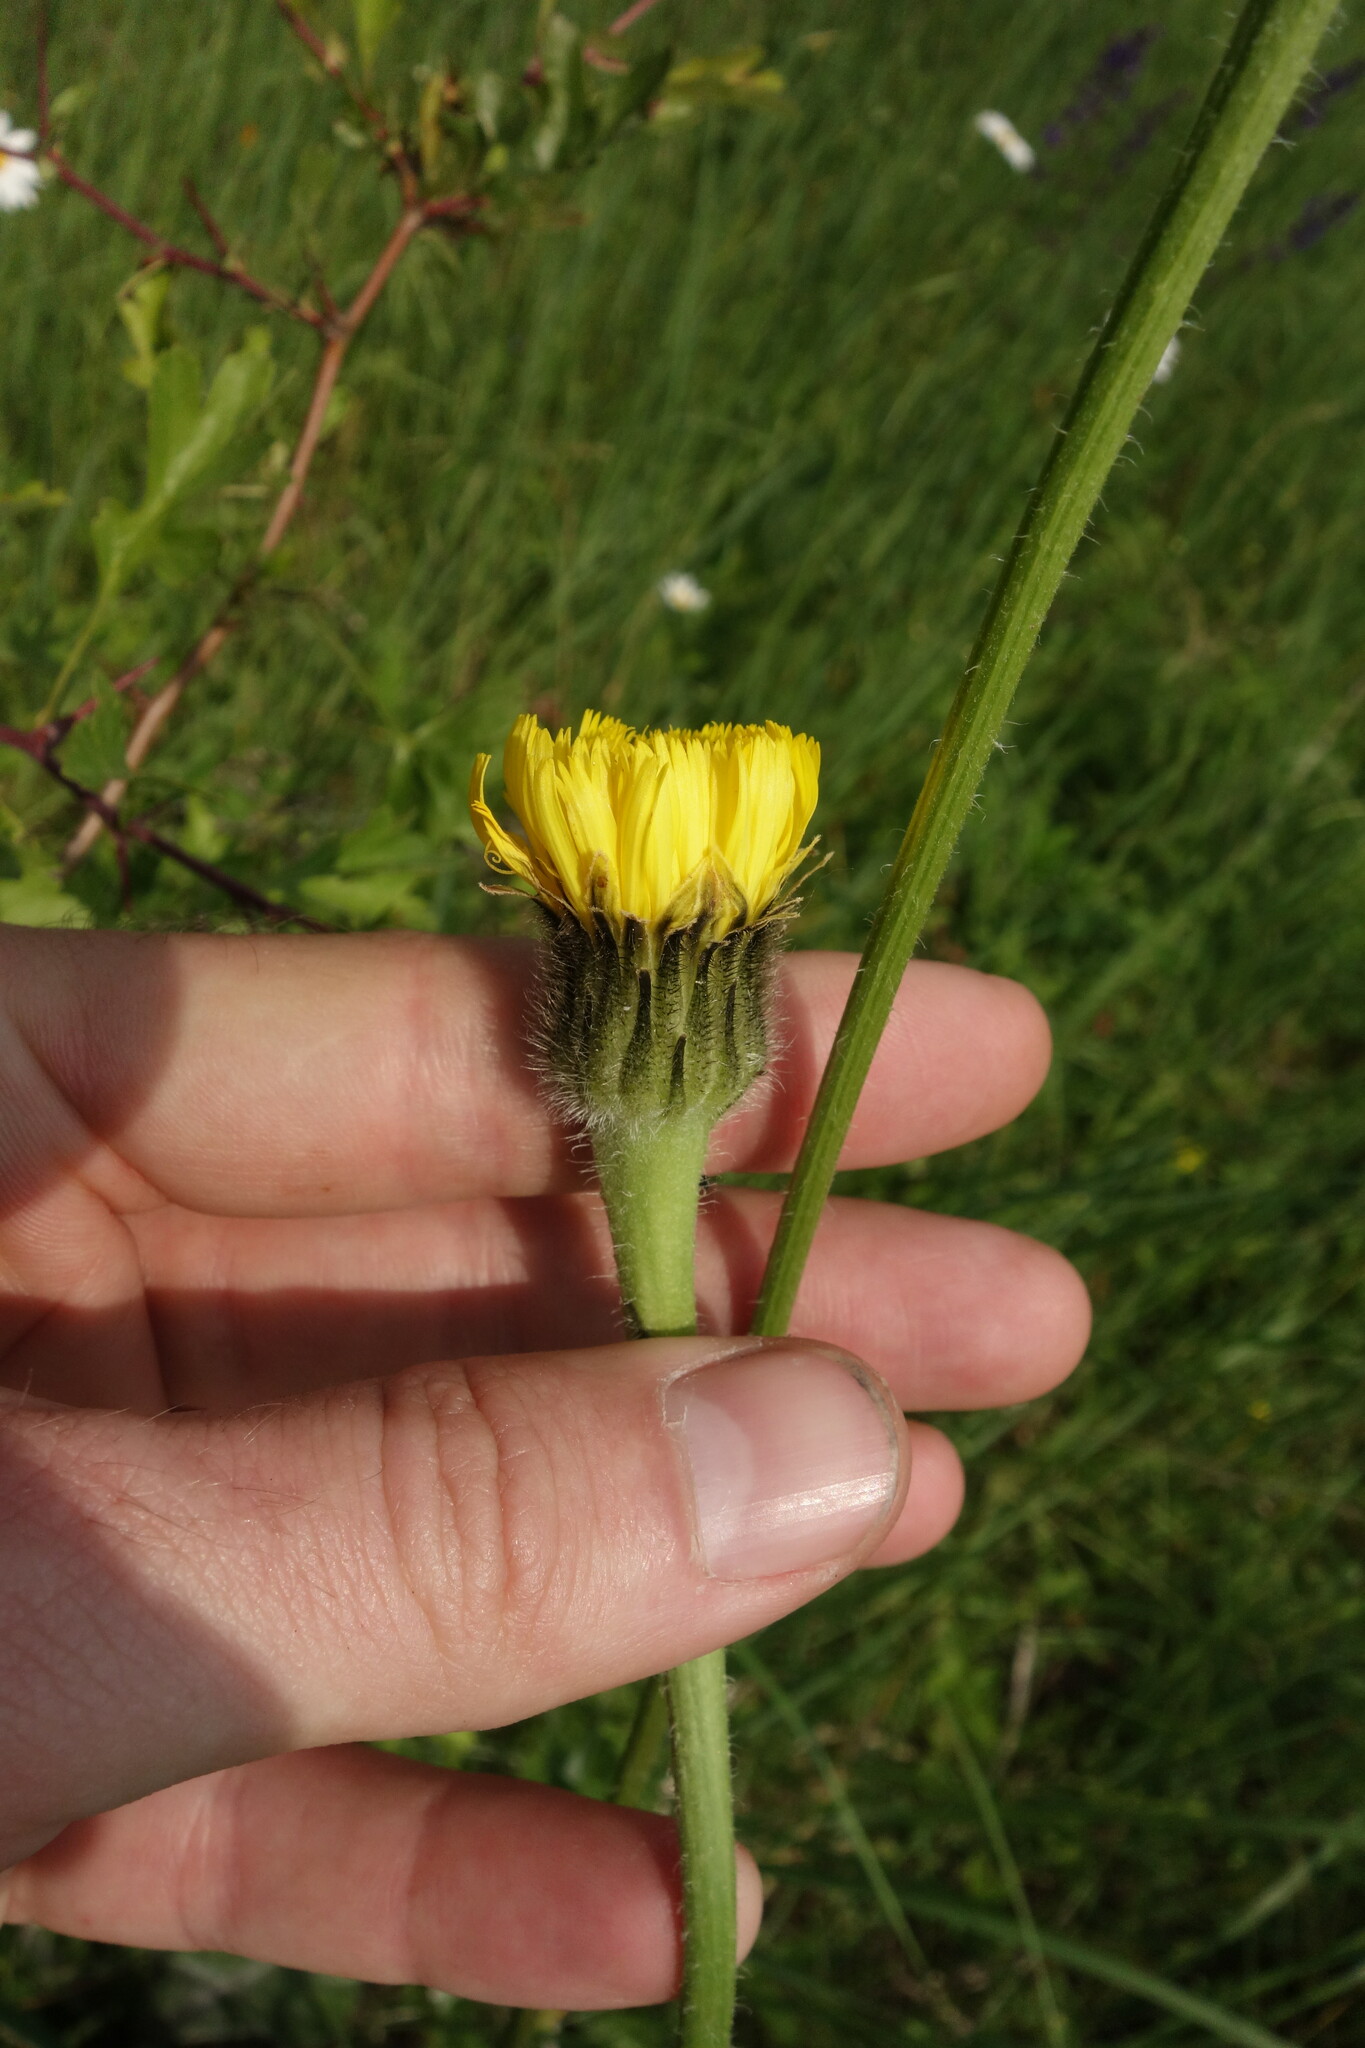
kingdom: Plantae
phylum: Tracheophyta
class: Magnoliopsida
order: Asterales
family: Asteraceae
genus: Trommsdorffia
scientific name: Trommsdorffia maculata
